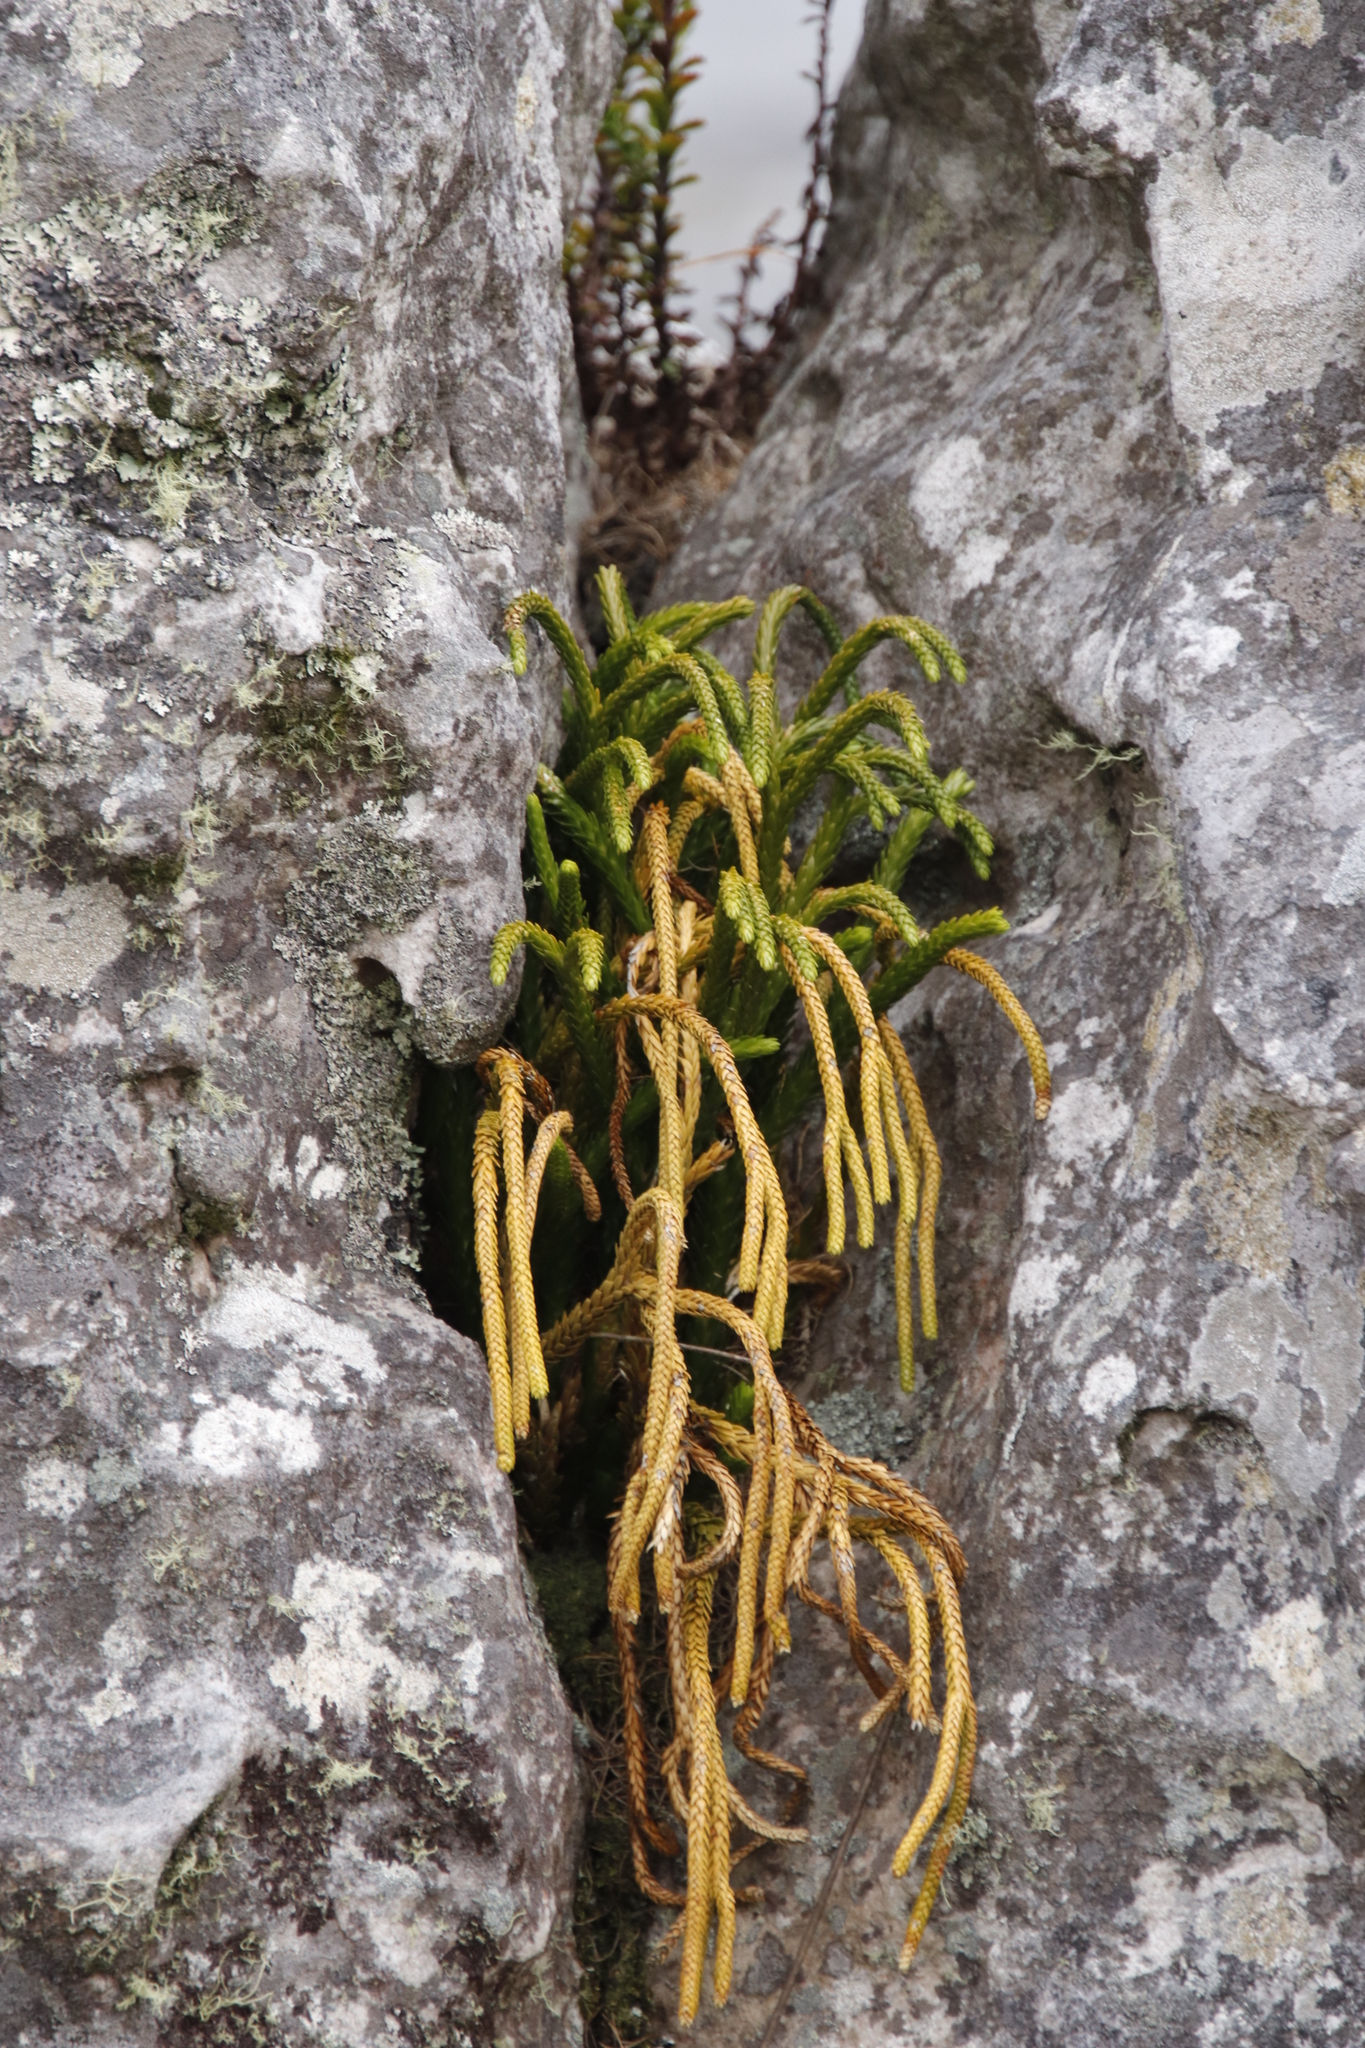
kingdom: Plantae
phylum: Tracheophyta
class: Lycopodiopsida
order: Lycopodiales
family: Lycopodiaceae
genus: Phlegmariurus
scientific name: Phlegmariurus gnidioides
